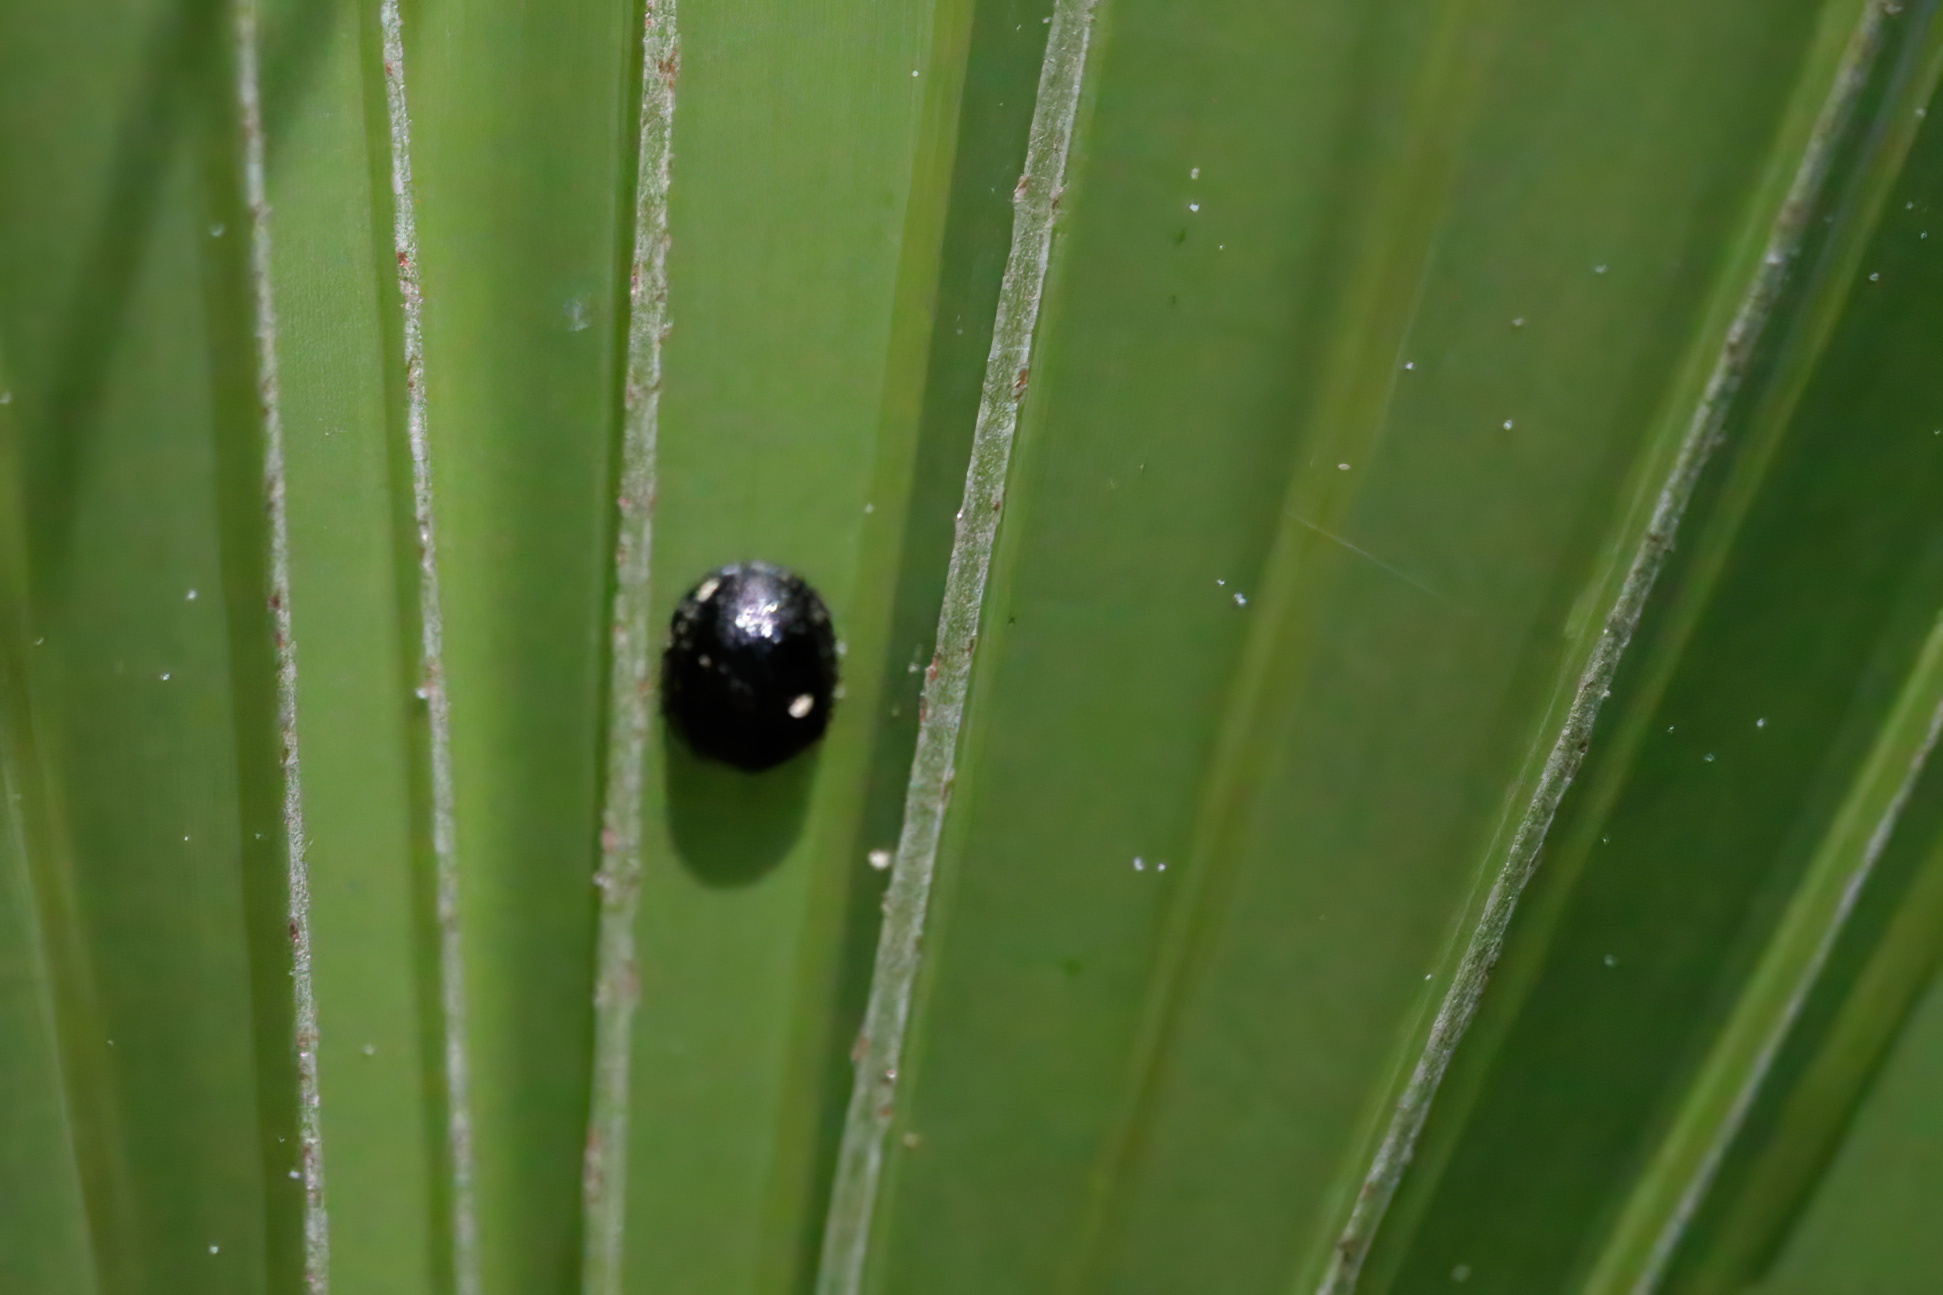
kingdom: Animalia
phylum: Arthropoda
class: Insecta
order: Coleoptera
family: Chrysomelidae
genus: Hemisphaerota
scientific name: Hemisphaerota cyanea
